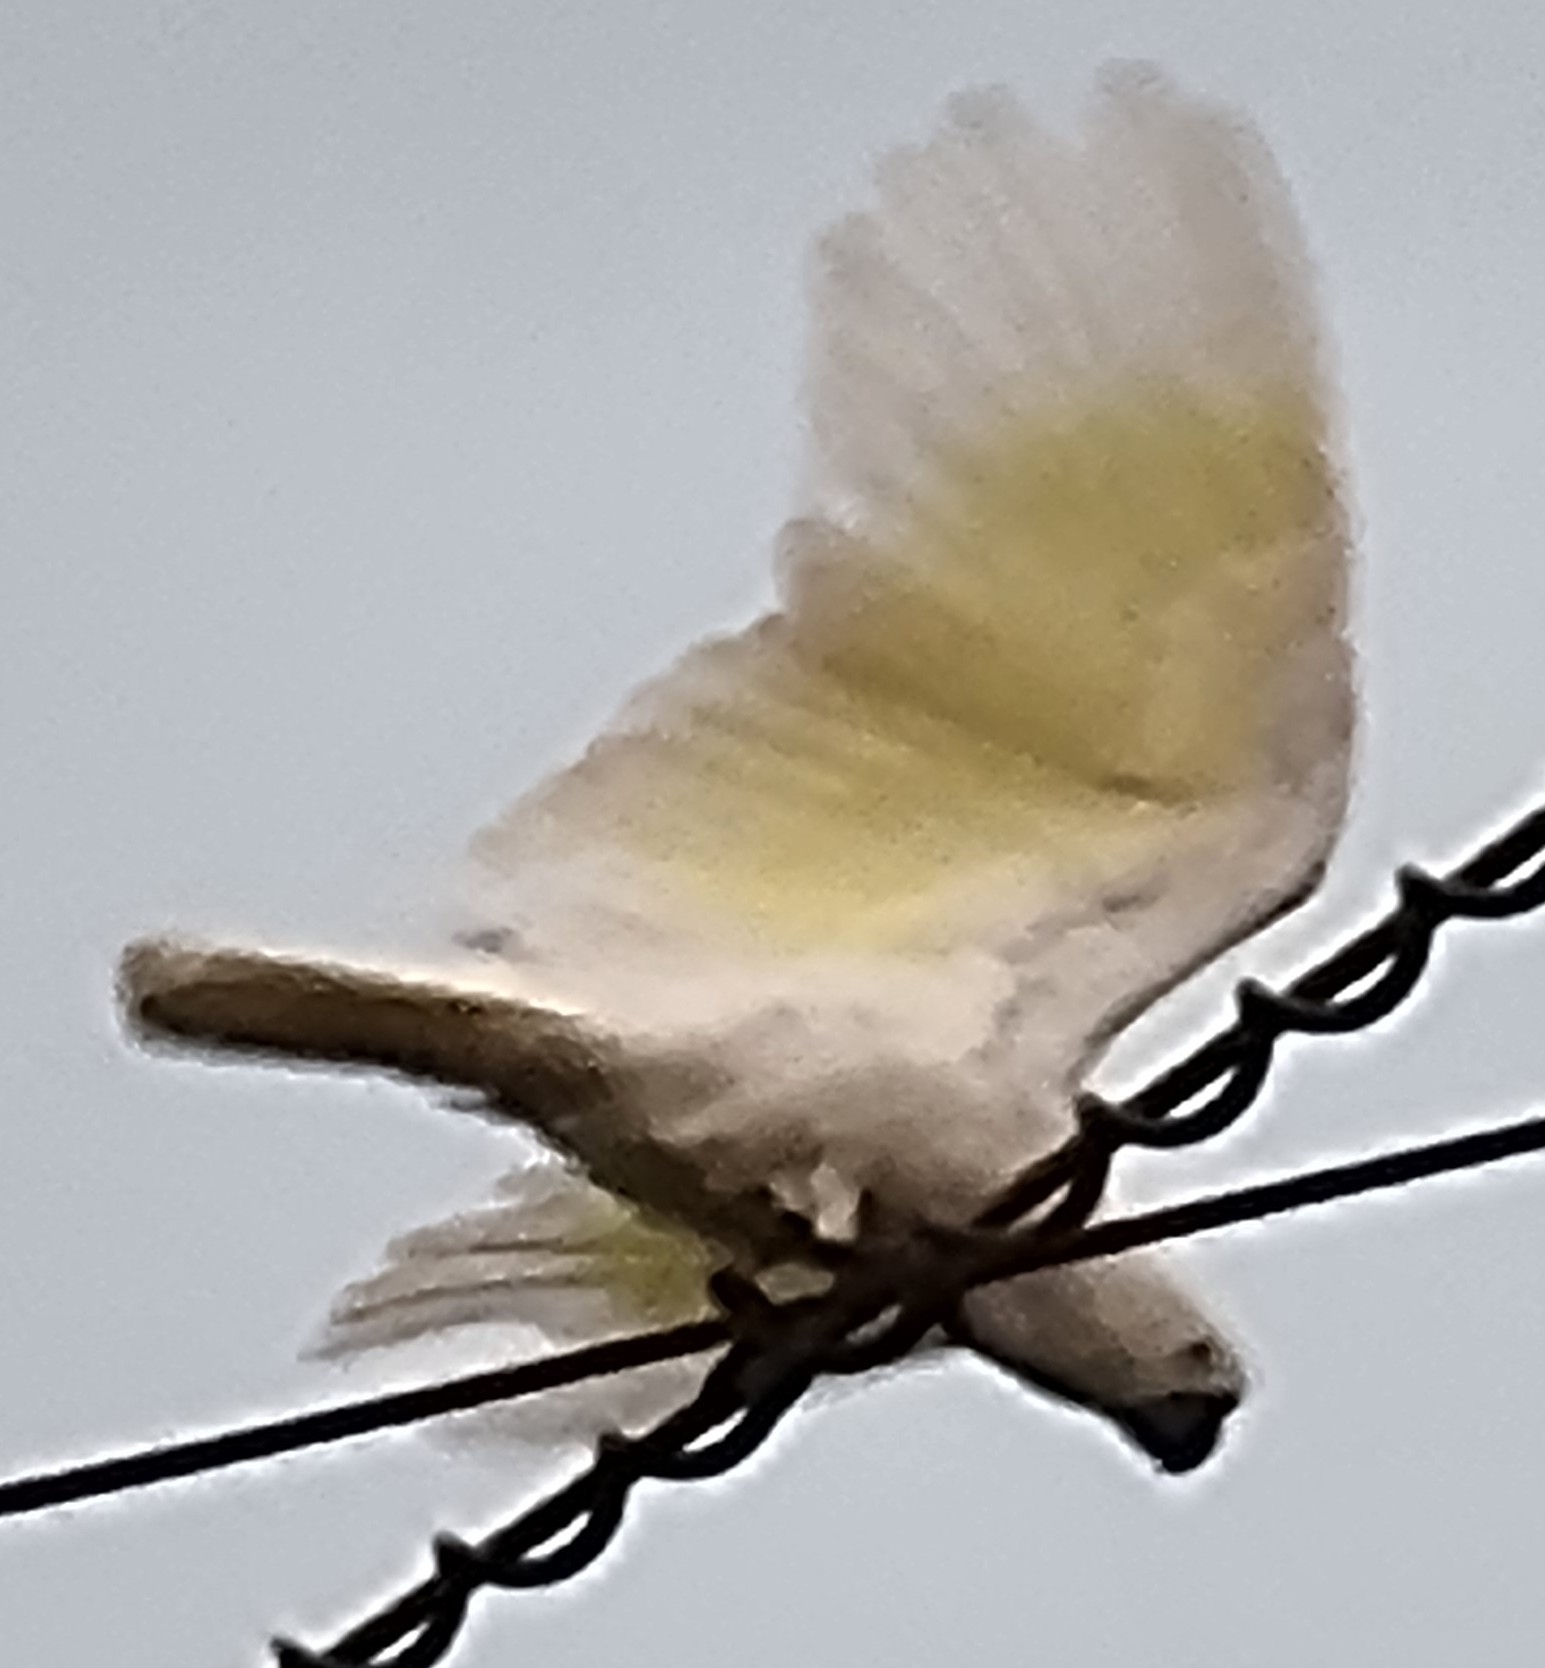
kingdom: Animalia
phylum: Chordata
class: Aves
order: Psittaciformes
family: Psittacidae
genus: Cacatua
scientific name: Cacatua galerita
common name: Sulphur-crested cockatoo
